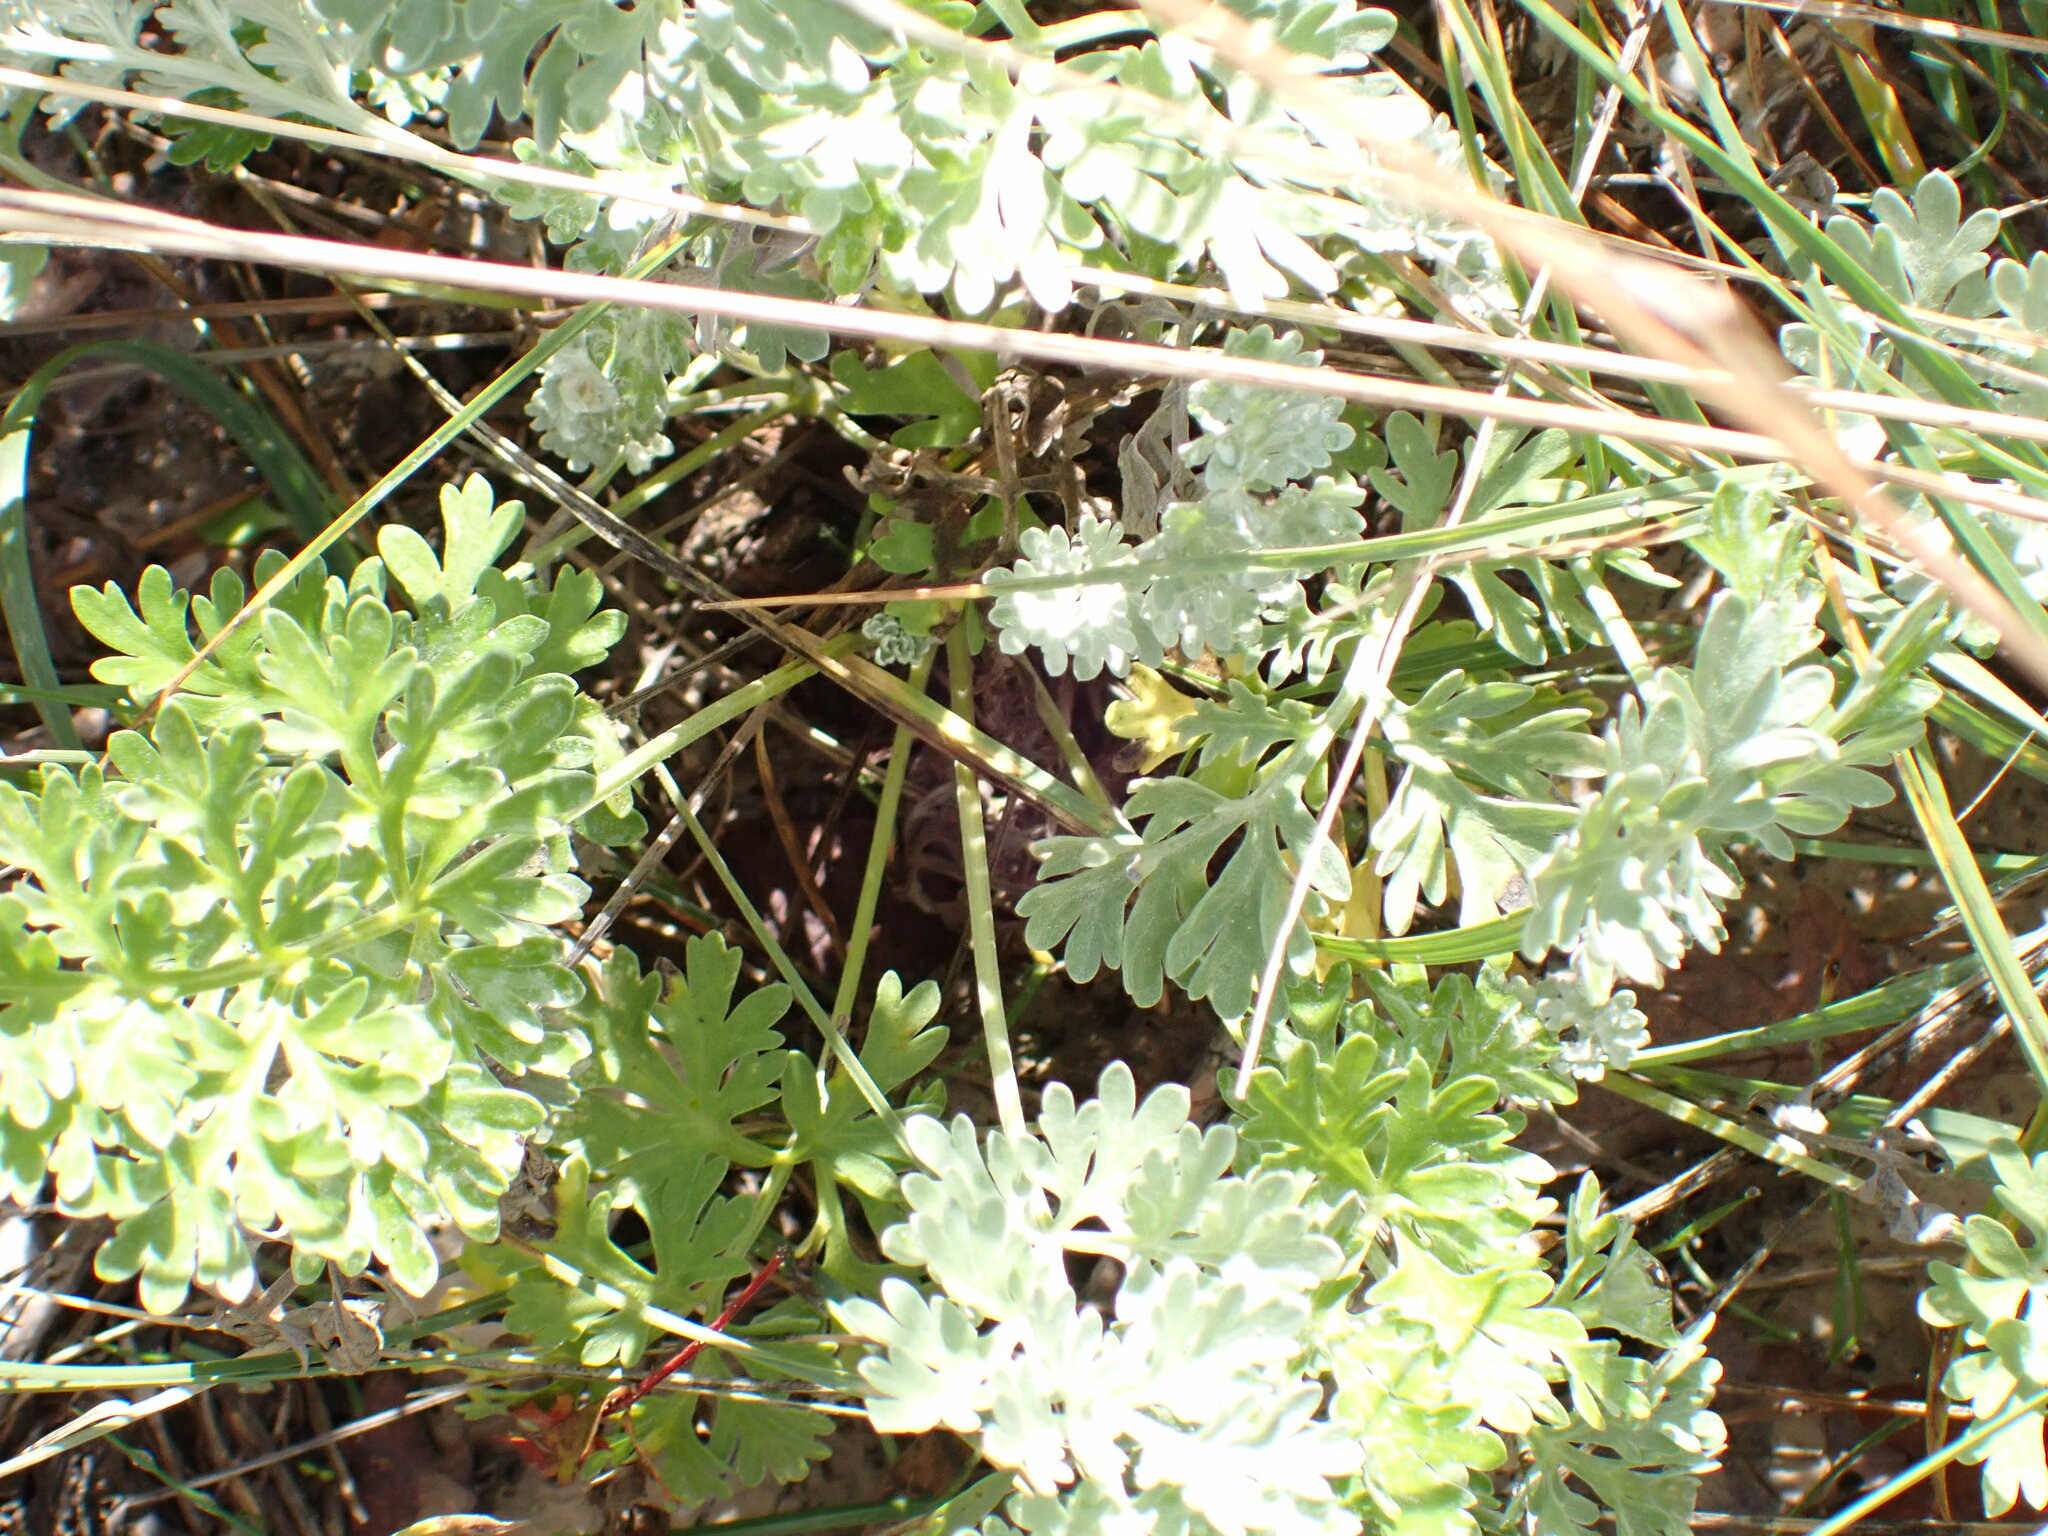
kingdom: Plantae
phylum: Tracheophyta
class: Magnoliopsida
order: Asterales
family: Asteraceae
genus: Artemisia
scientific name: Artemisia absinthium
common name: Wormwood
